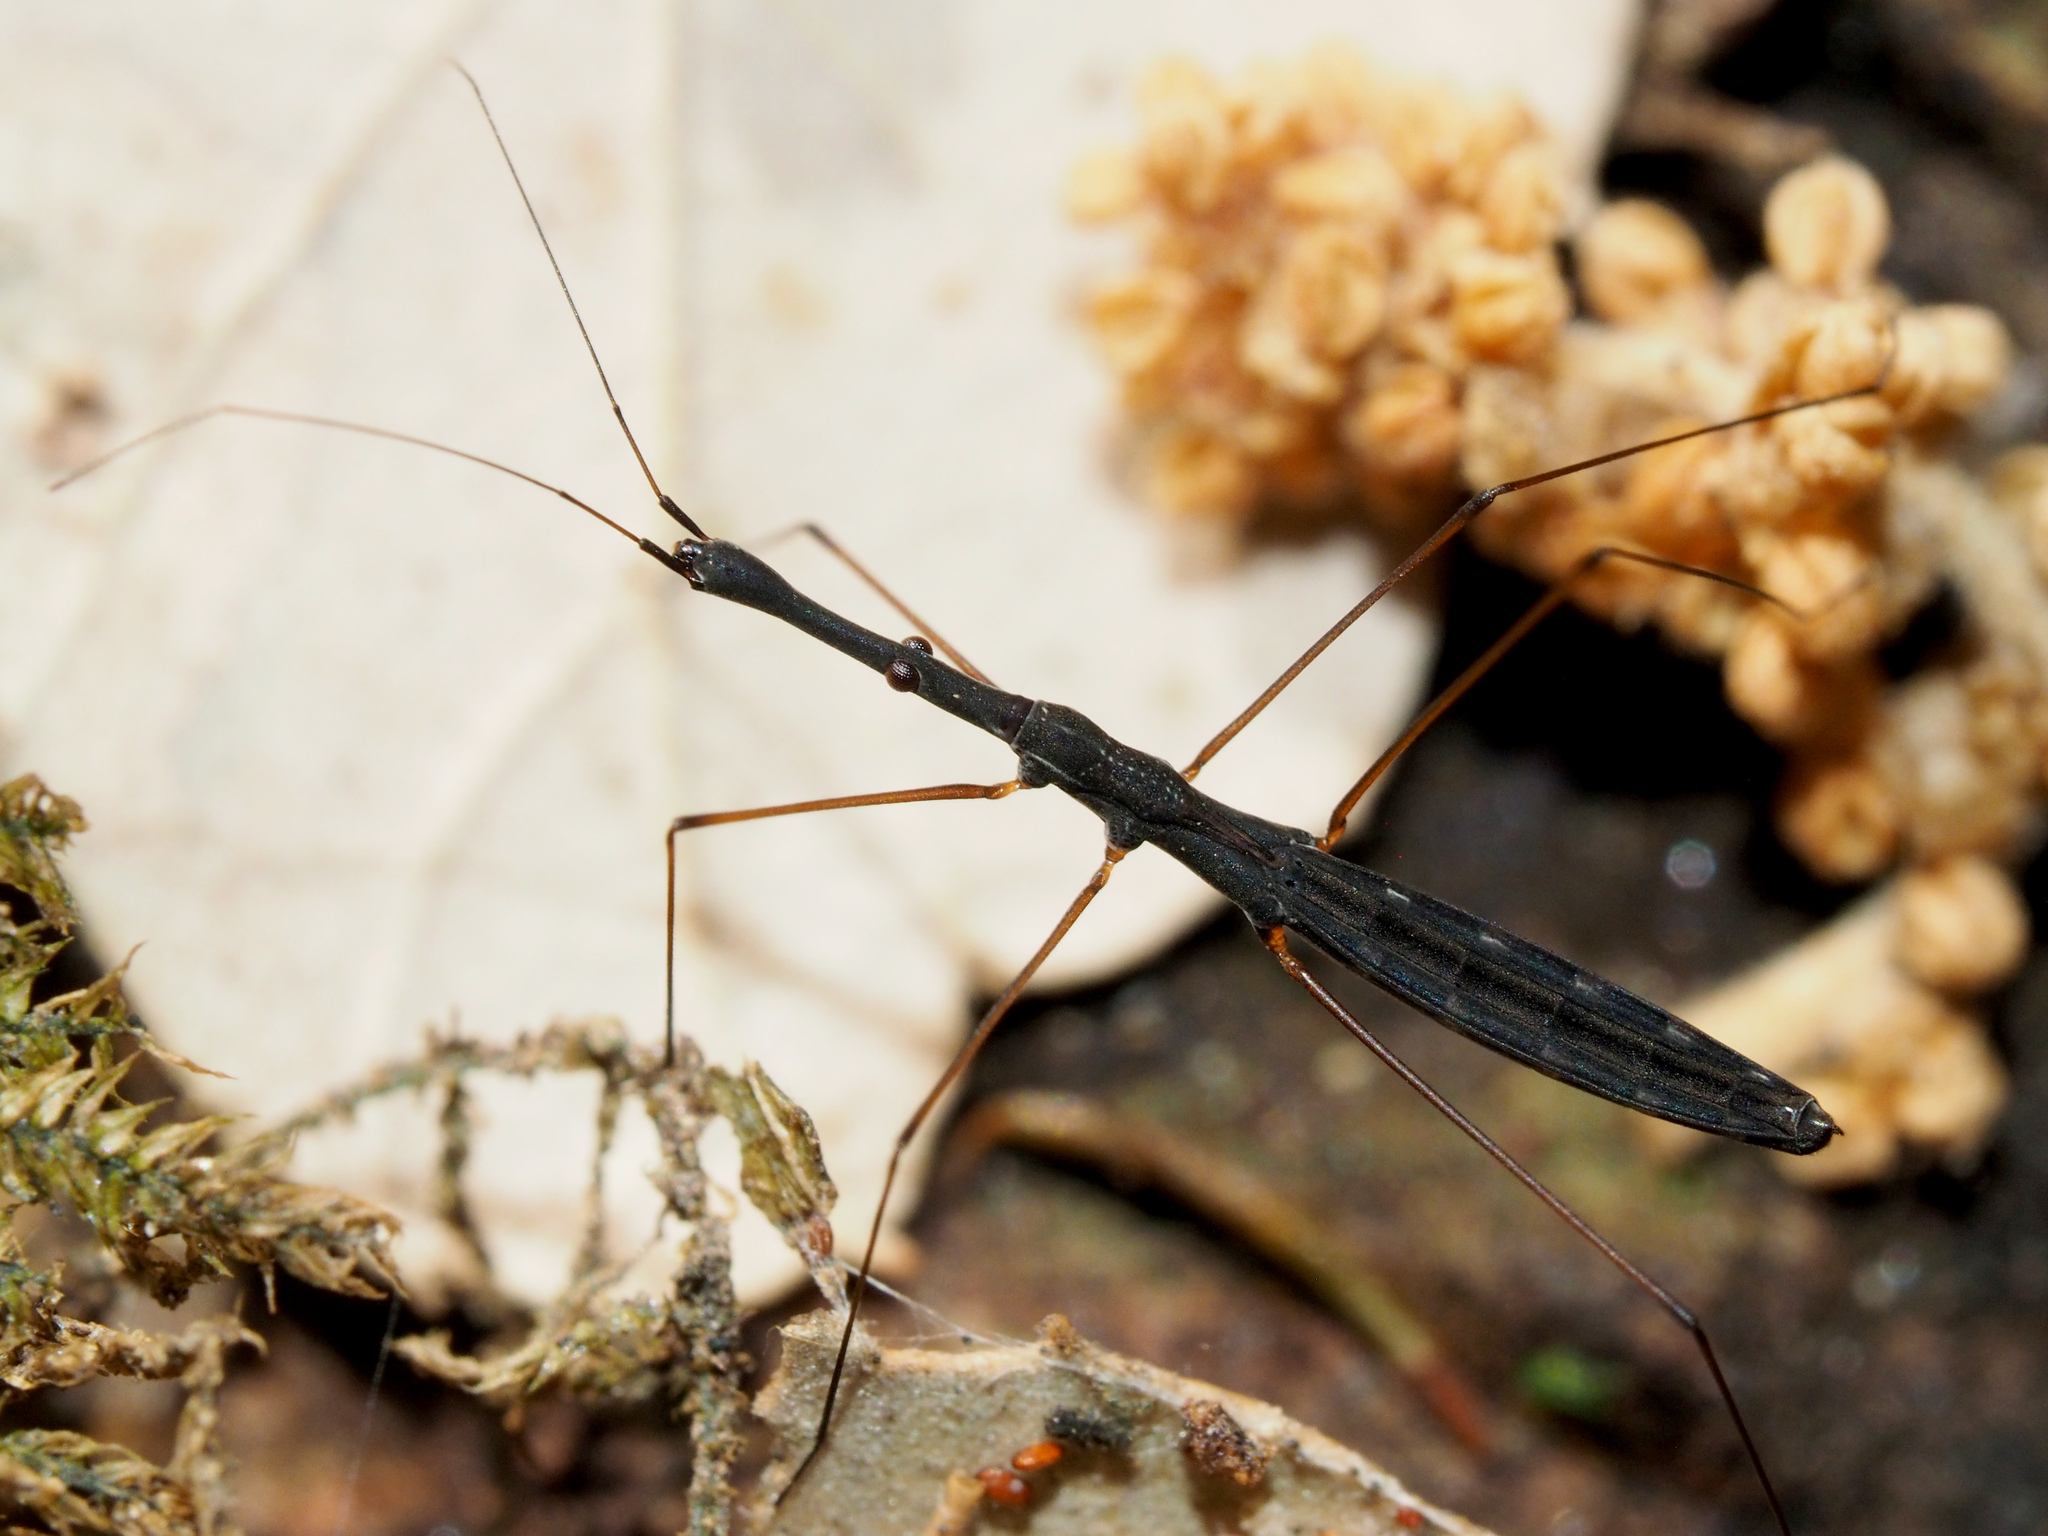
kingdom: Animalia
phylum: Arthropoda
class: Insecta
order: Hemiptera
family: Hydrometridae
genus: Hydrometra
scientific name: Hydrometra stagnorum
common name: Water measurer
